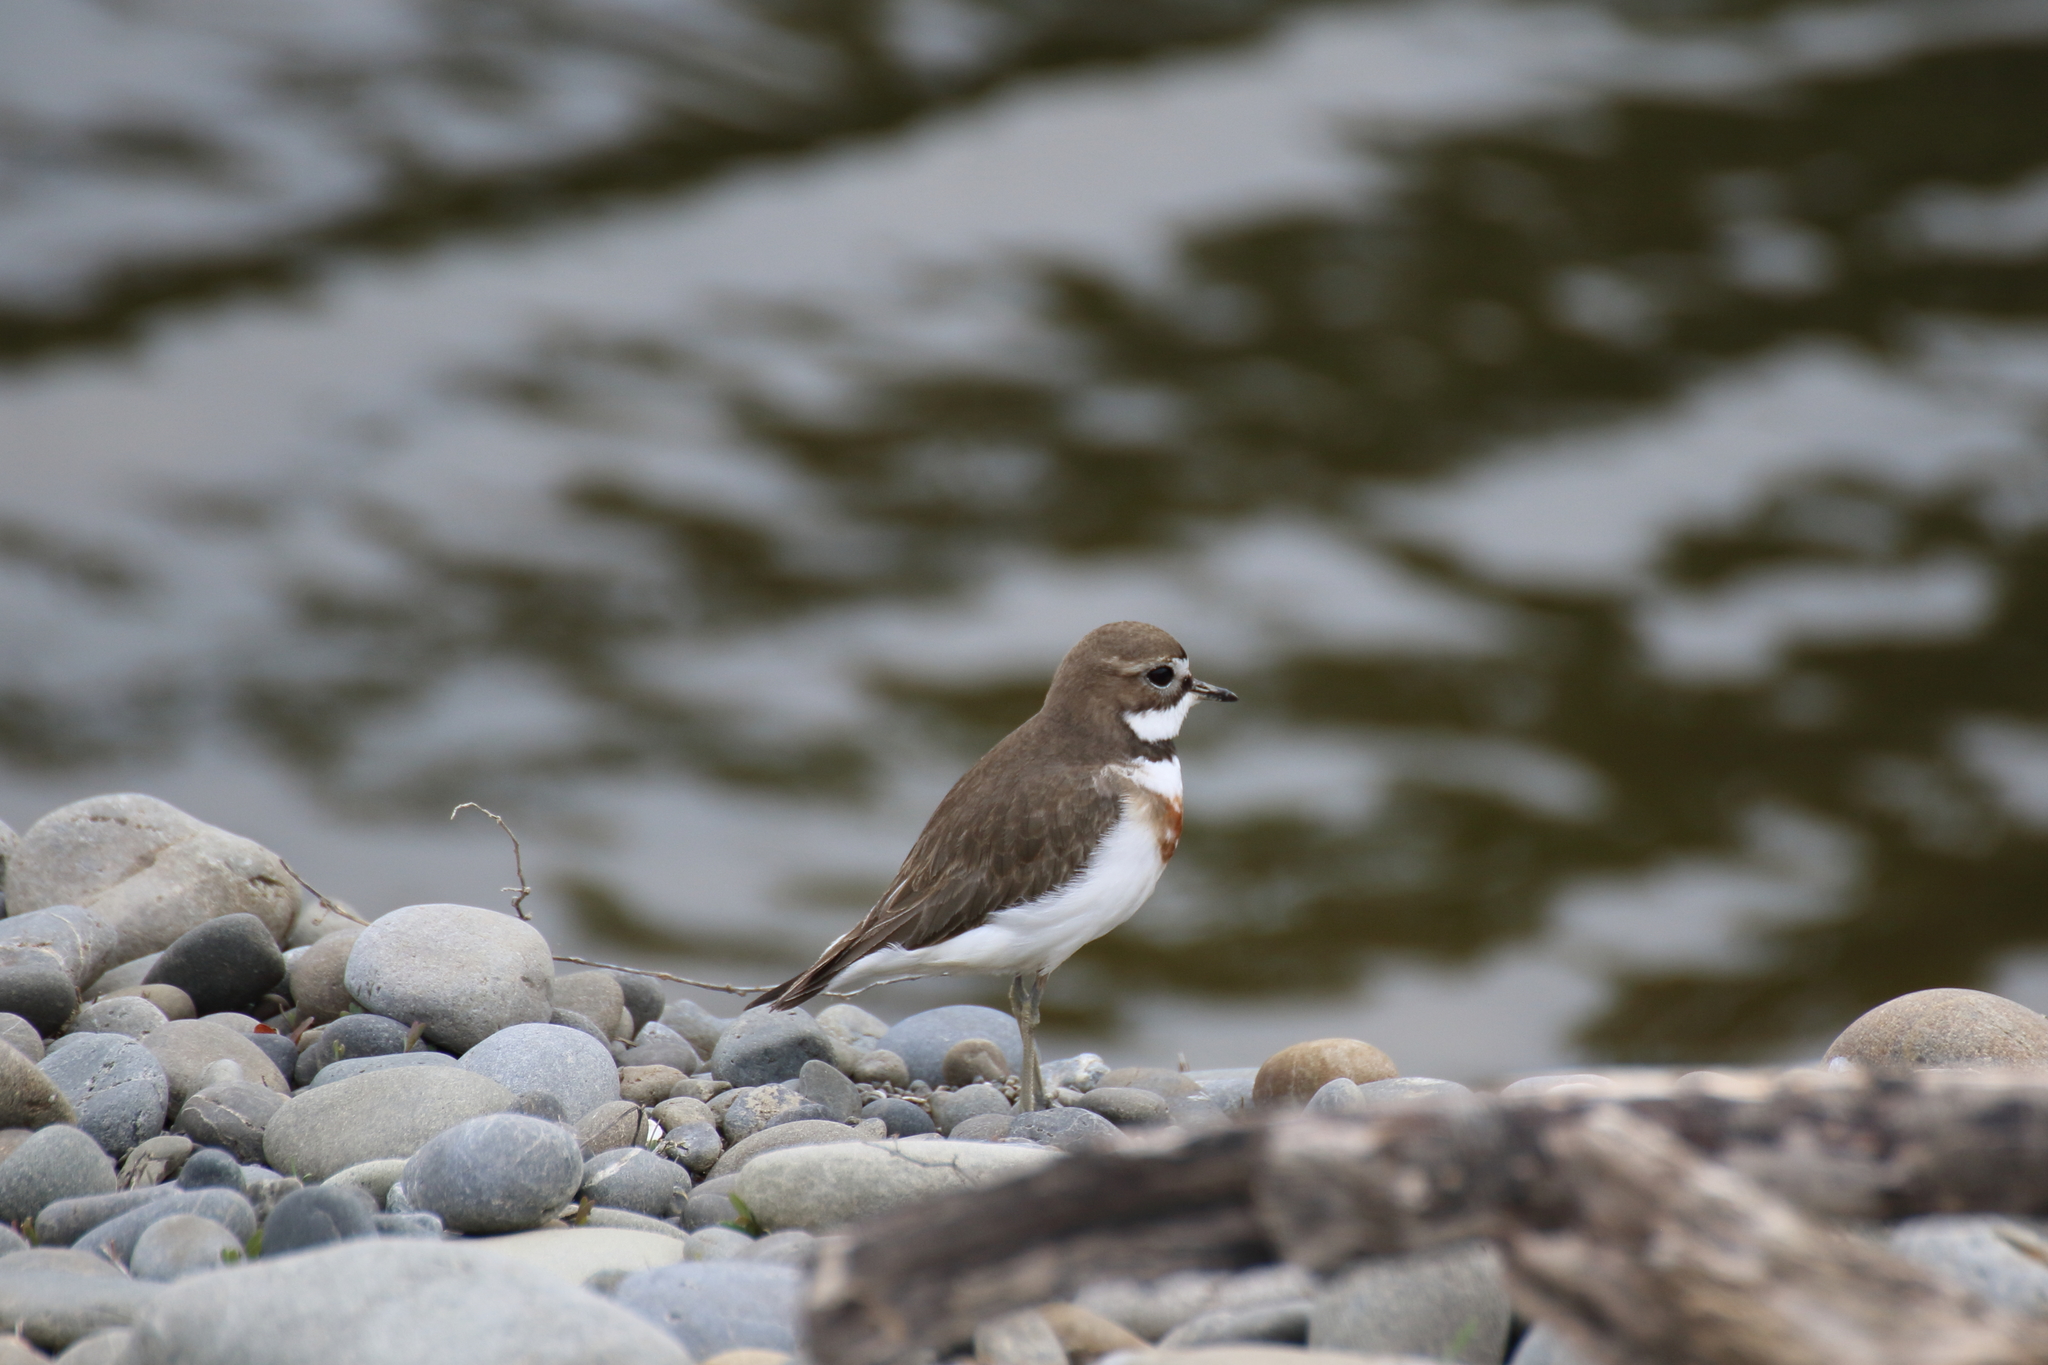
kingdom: Animalia
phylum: Chordata
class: Aves
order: Charadriiformes
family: Charadriidae
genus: Anarhynchus
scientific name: Anarhynchus
